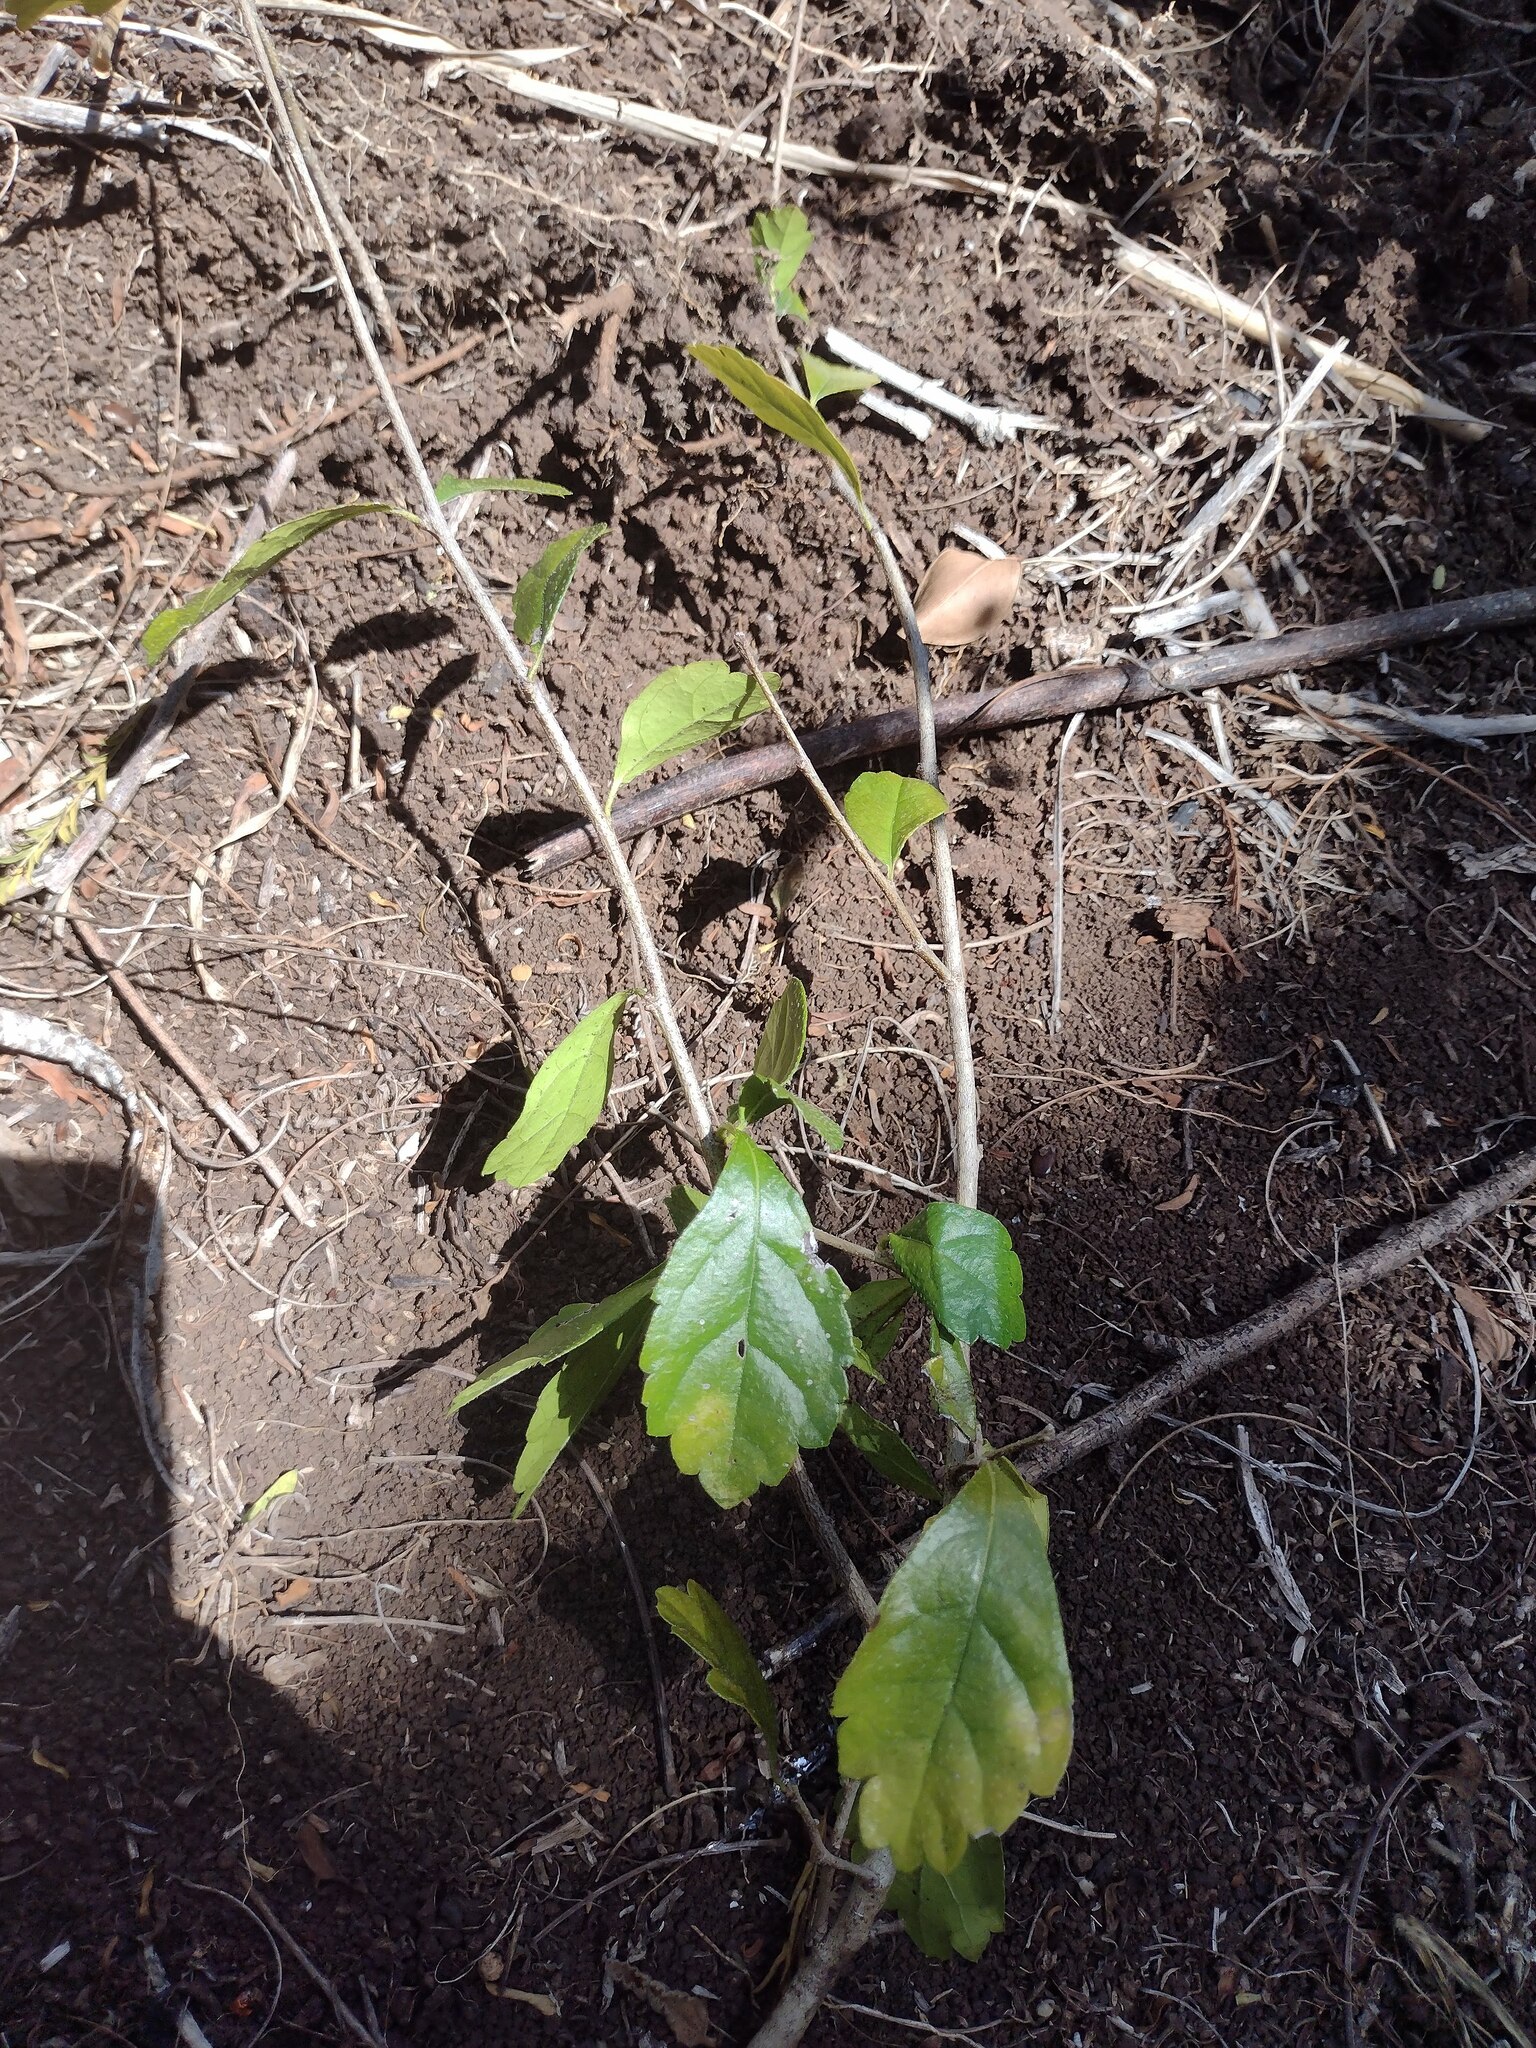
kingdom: Plantae
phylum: Tracheophyta
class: Magnoliopsida
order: Boraginales
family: Ehretiaceae
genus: Ehretia
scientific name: Ehretia microphylla
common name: Fukien-tea
